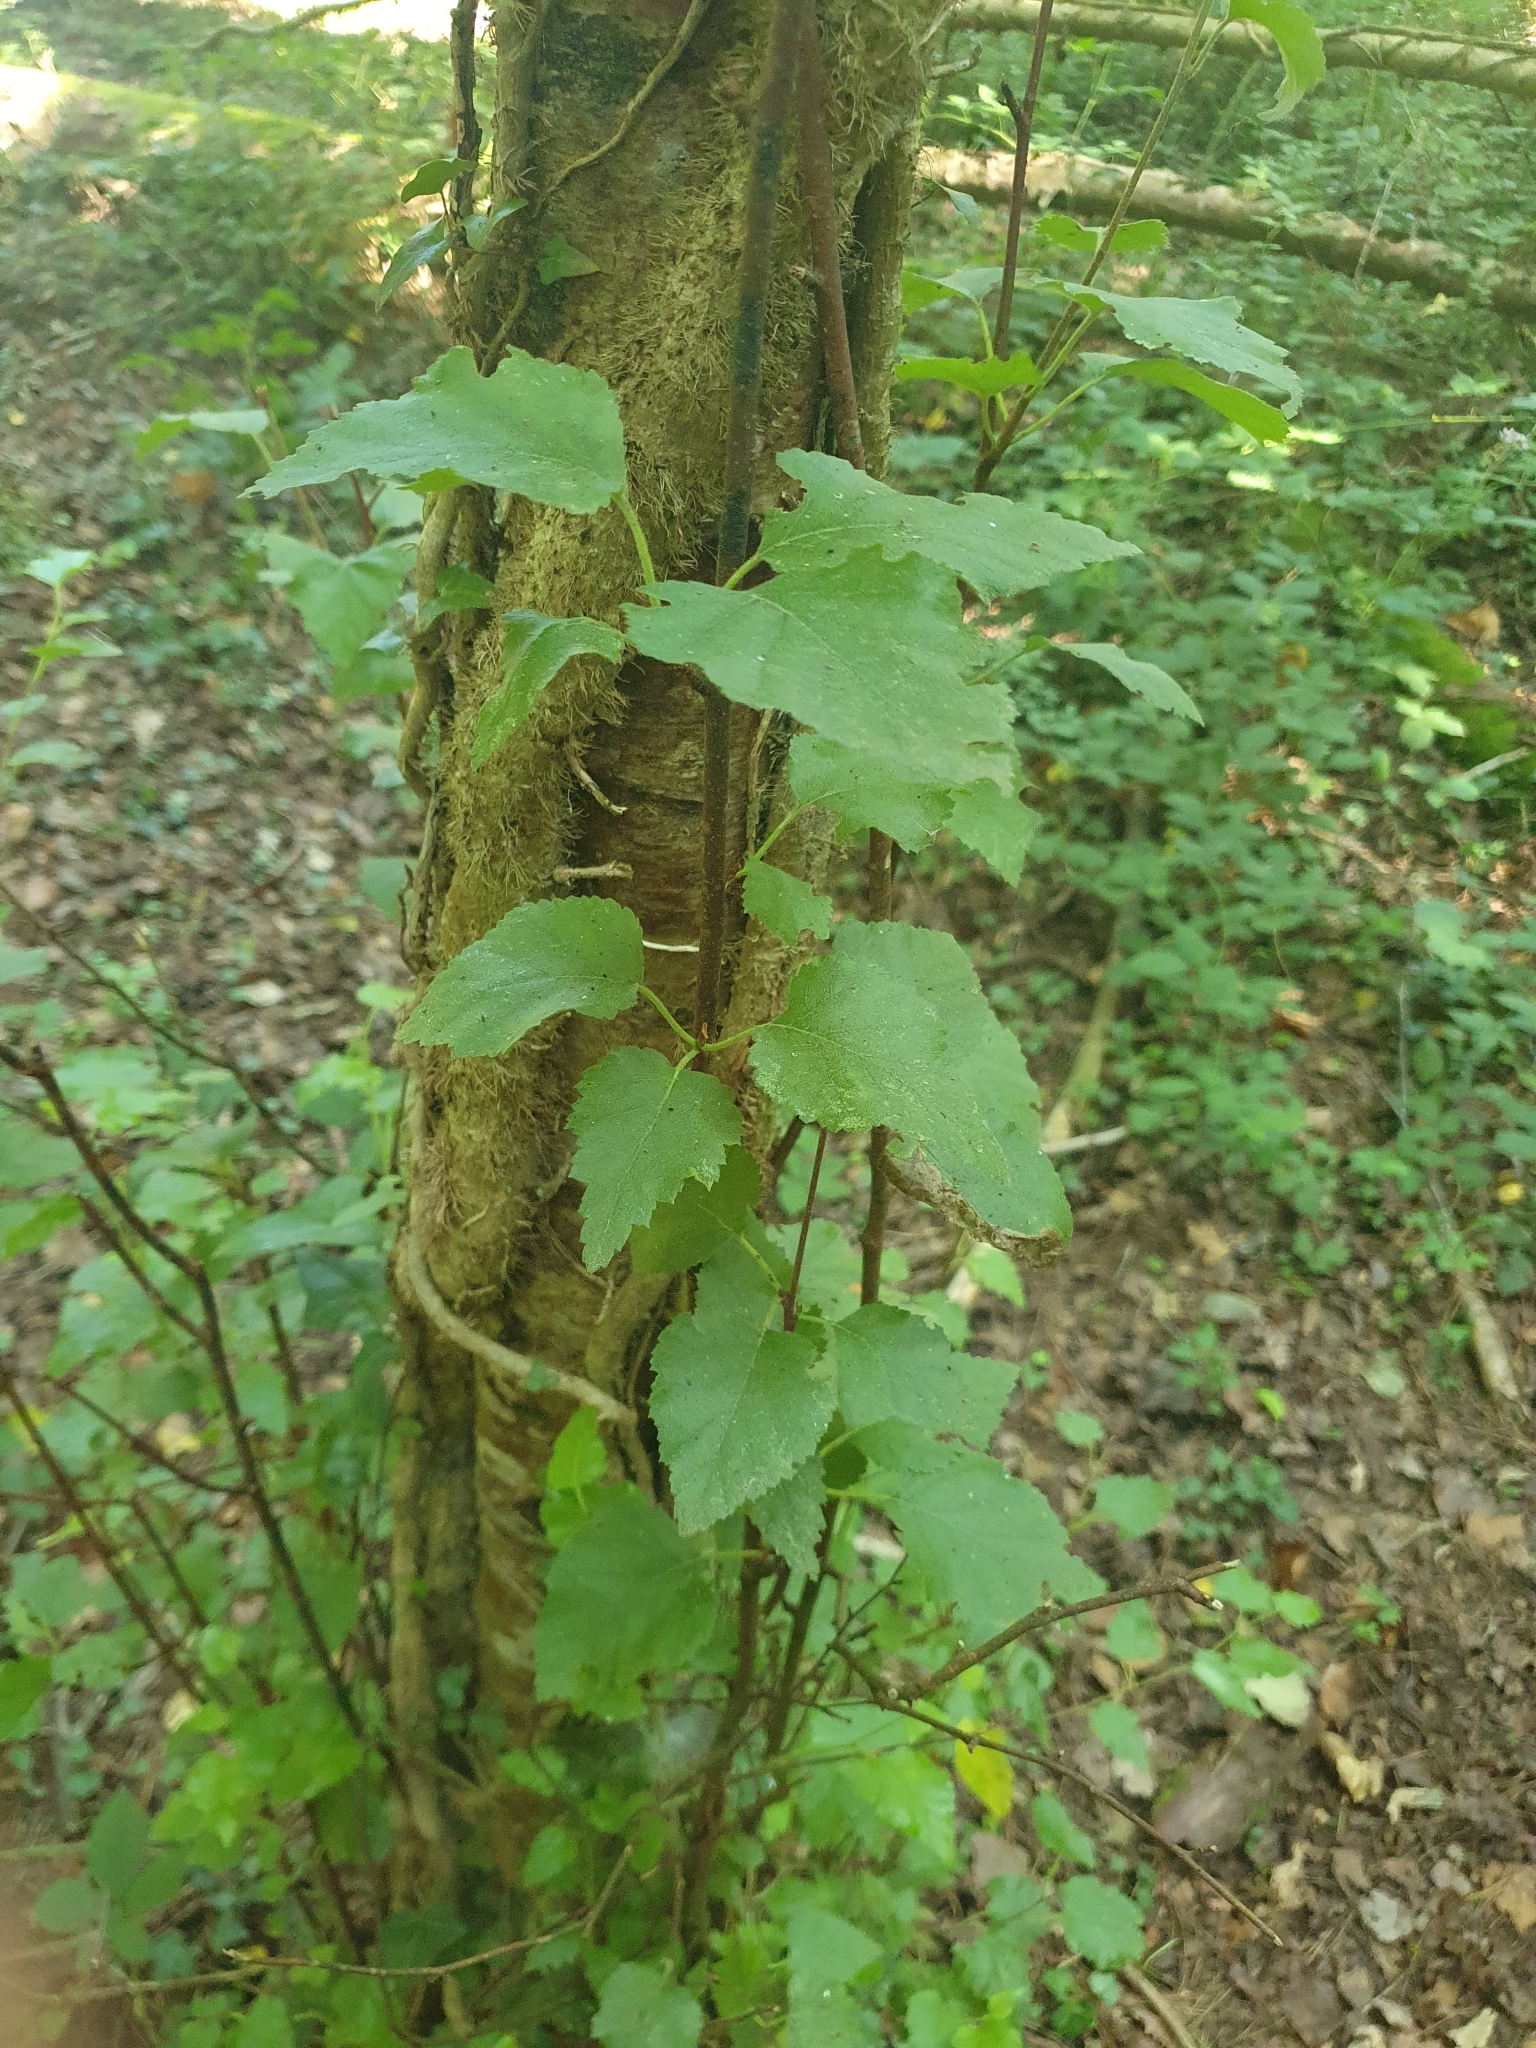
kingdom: Plantae
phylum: Tracheophyta
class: Magnoliopsida
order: Fagales
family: Betulaceae
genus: Betula
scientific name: Betula pubescens
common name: Downy birch
